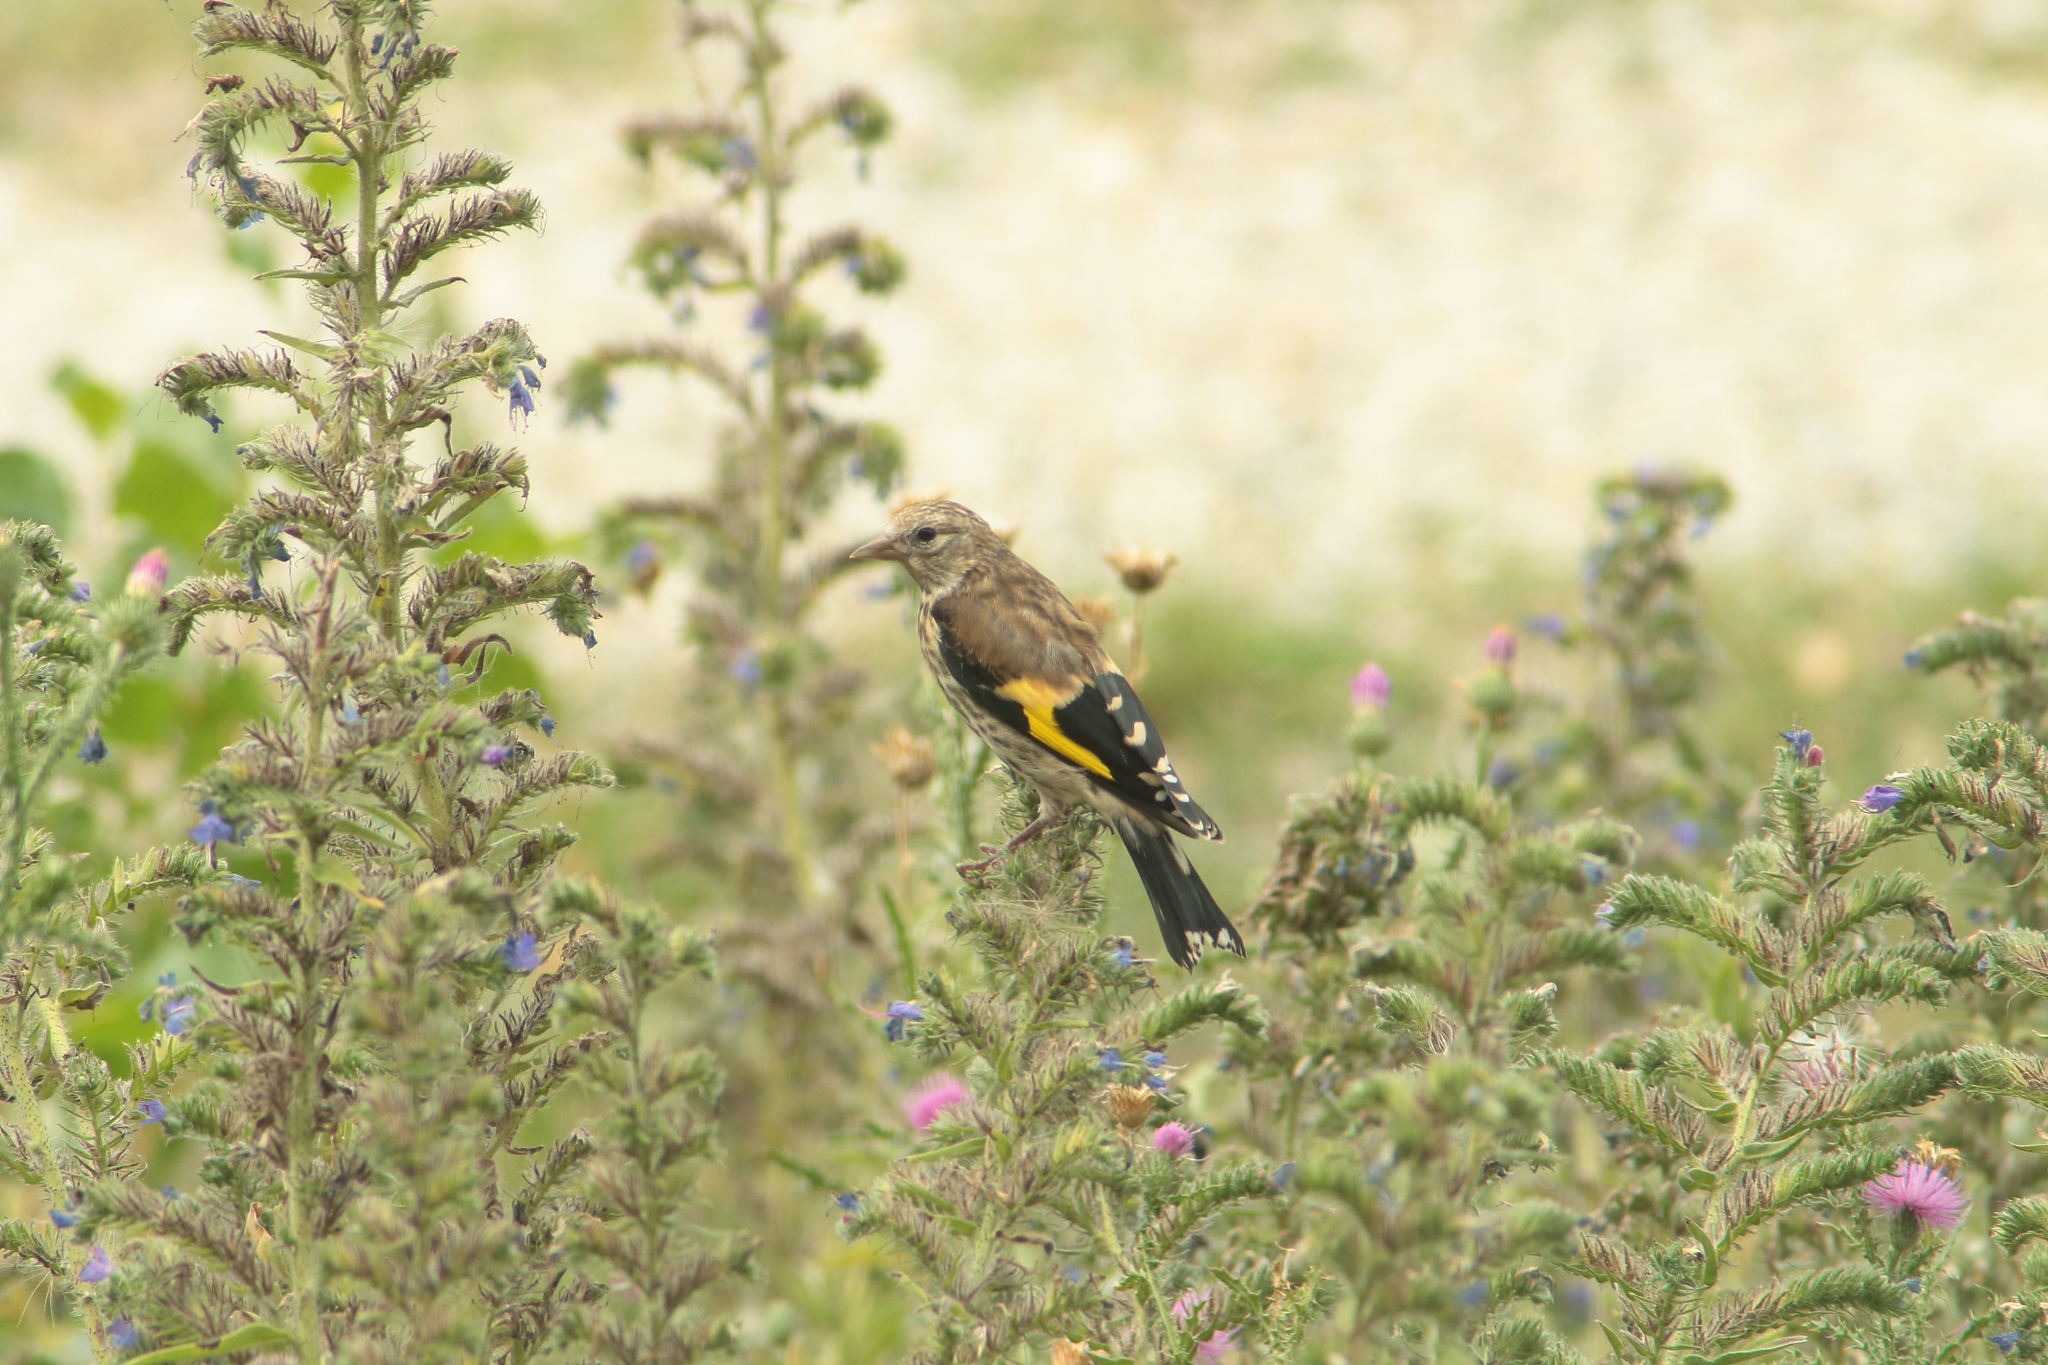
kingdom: Animalia
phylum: Chordata
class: Aves
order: Passeriformes
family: Fringillidae
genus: Carduelis
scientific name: Carduelis carduelis
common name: European goldfinch
